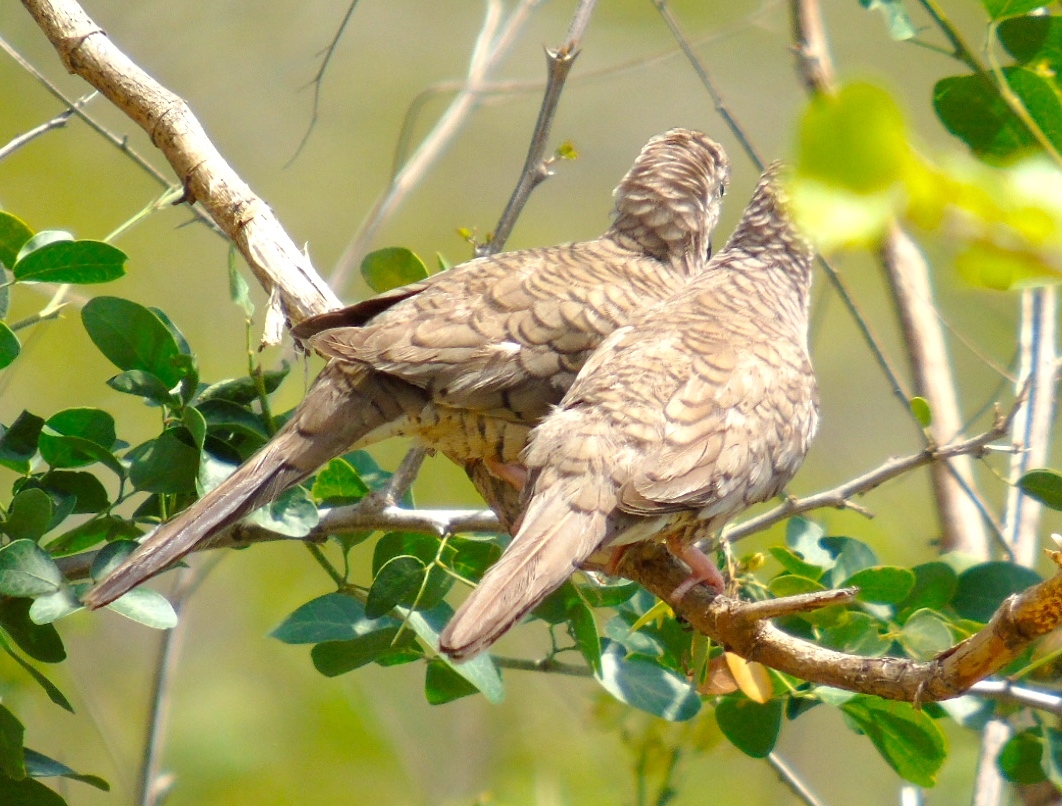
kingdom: Animalia
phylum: Chordata
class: Aves
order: Columbiformes
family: Columbidae
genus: Columbina
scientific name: Columbina inca
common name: Inca dove
